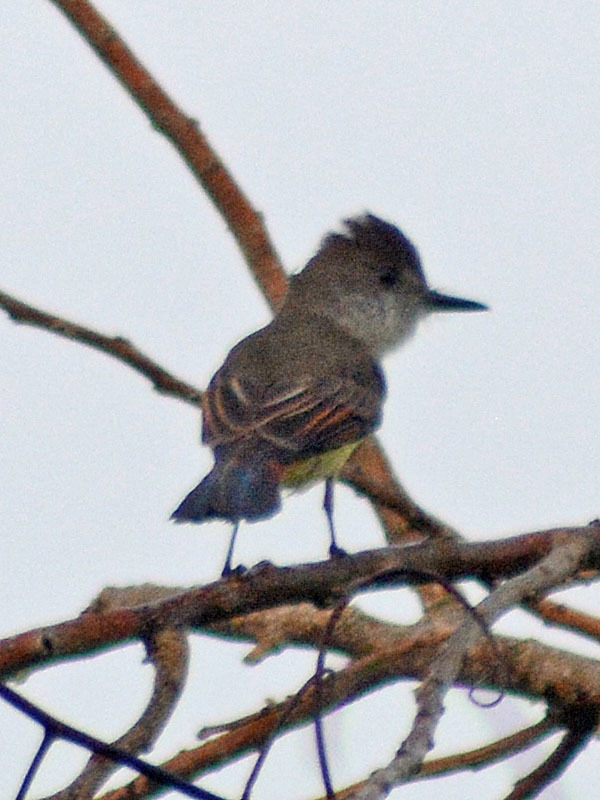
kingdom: Animalia
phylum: Chordata
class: Aves
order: Passeriformes
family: Tyrannidae
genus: Myiarchus
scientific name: Myiarchus tuberculifer
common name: Dusky-capped flycatcher
